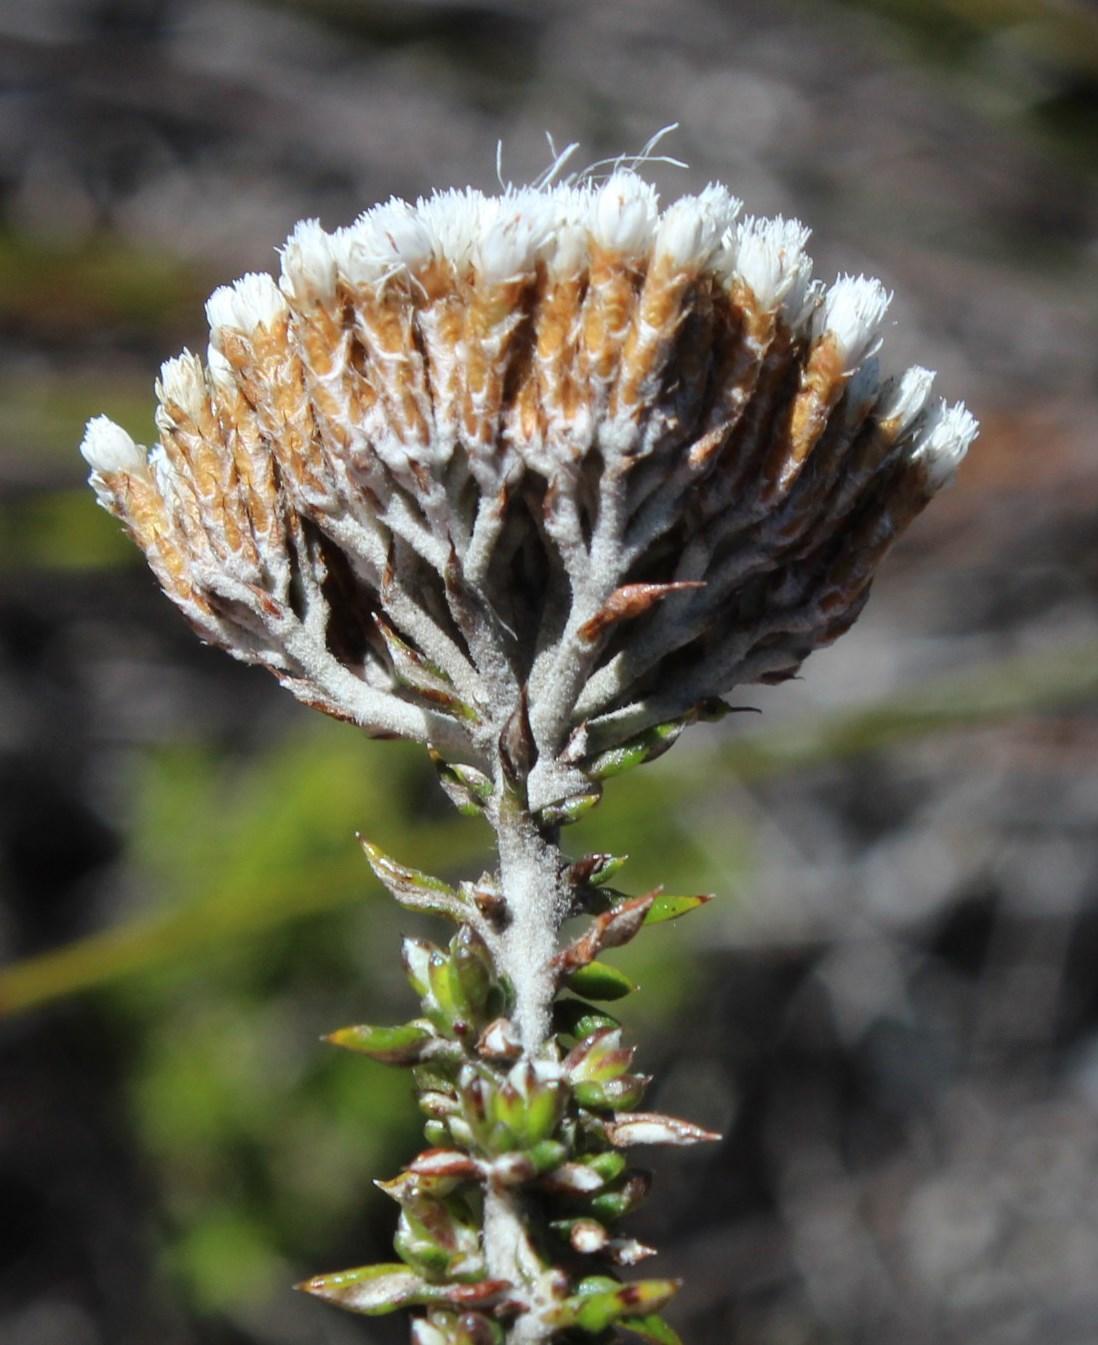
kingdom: Plantae
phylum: Tracheophyta
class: Magnoliopsida
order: Asterales
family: Asteraceae
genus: Metalasia
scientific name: Metalasia densa
